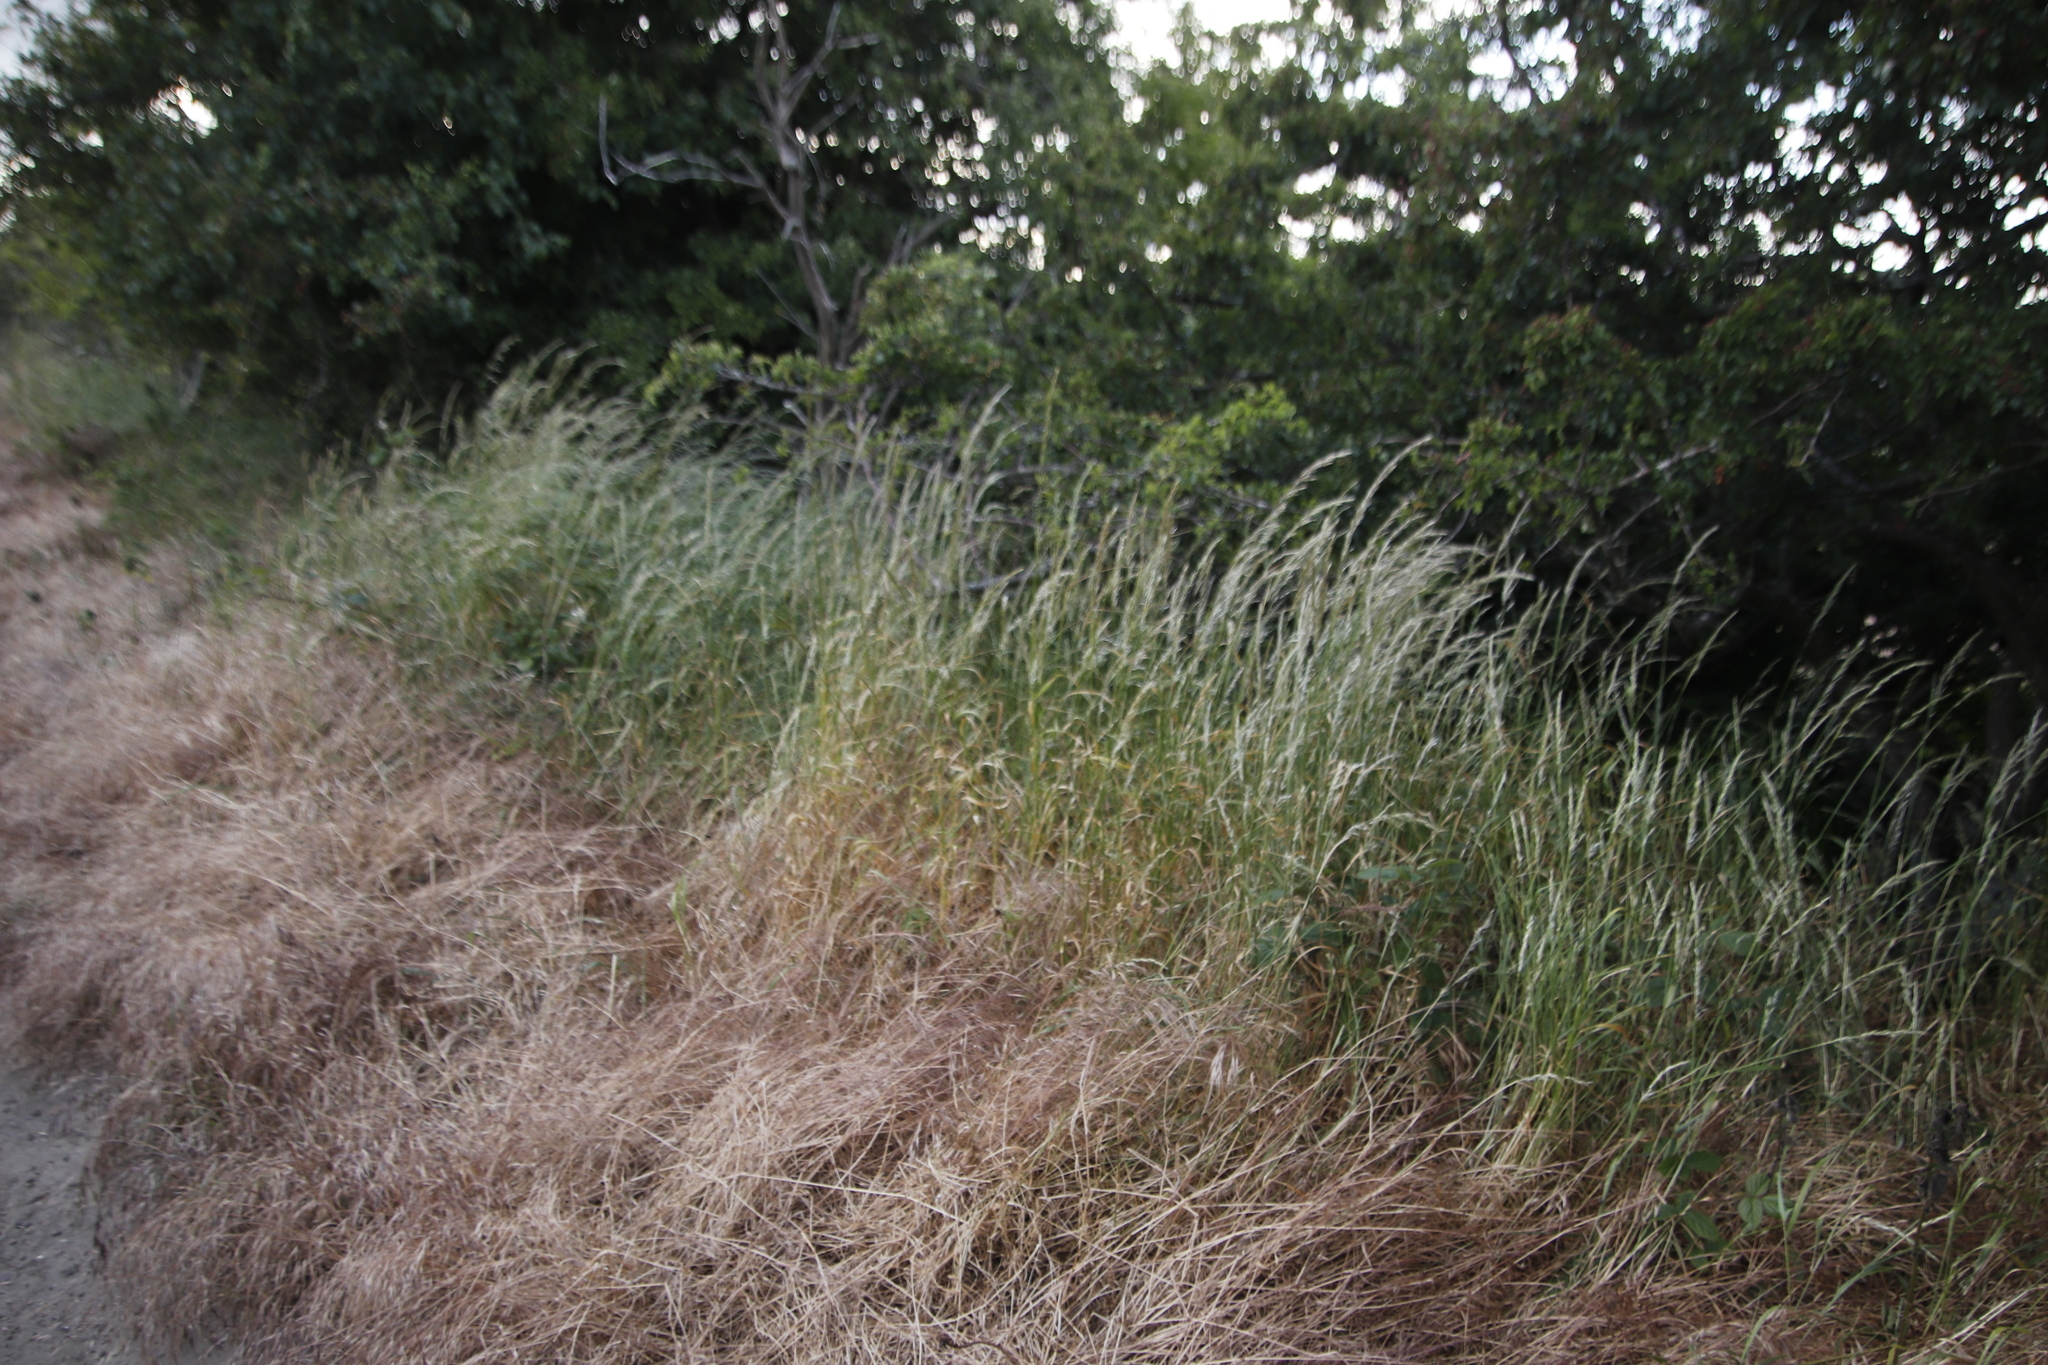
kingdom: Plantae
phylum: Tracheophyta
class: Liliopsida
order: Poales
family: Poaceae
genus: Arrhenatherum
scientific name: Arrhenatherum elatius
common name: Tall oatgrass
